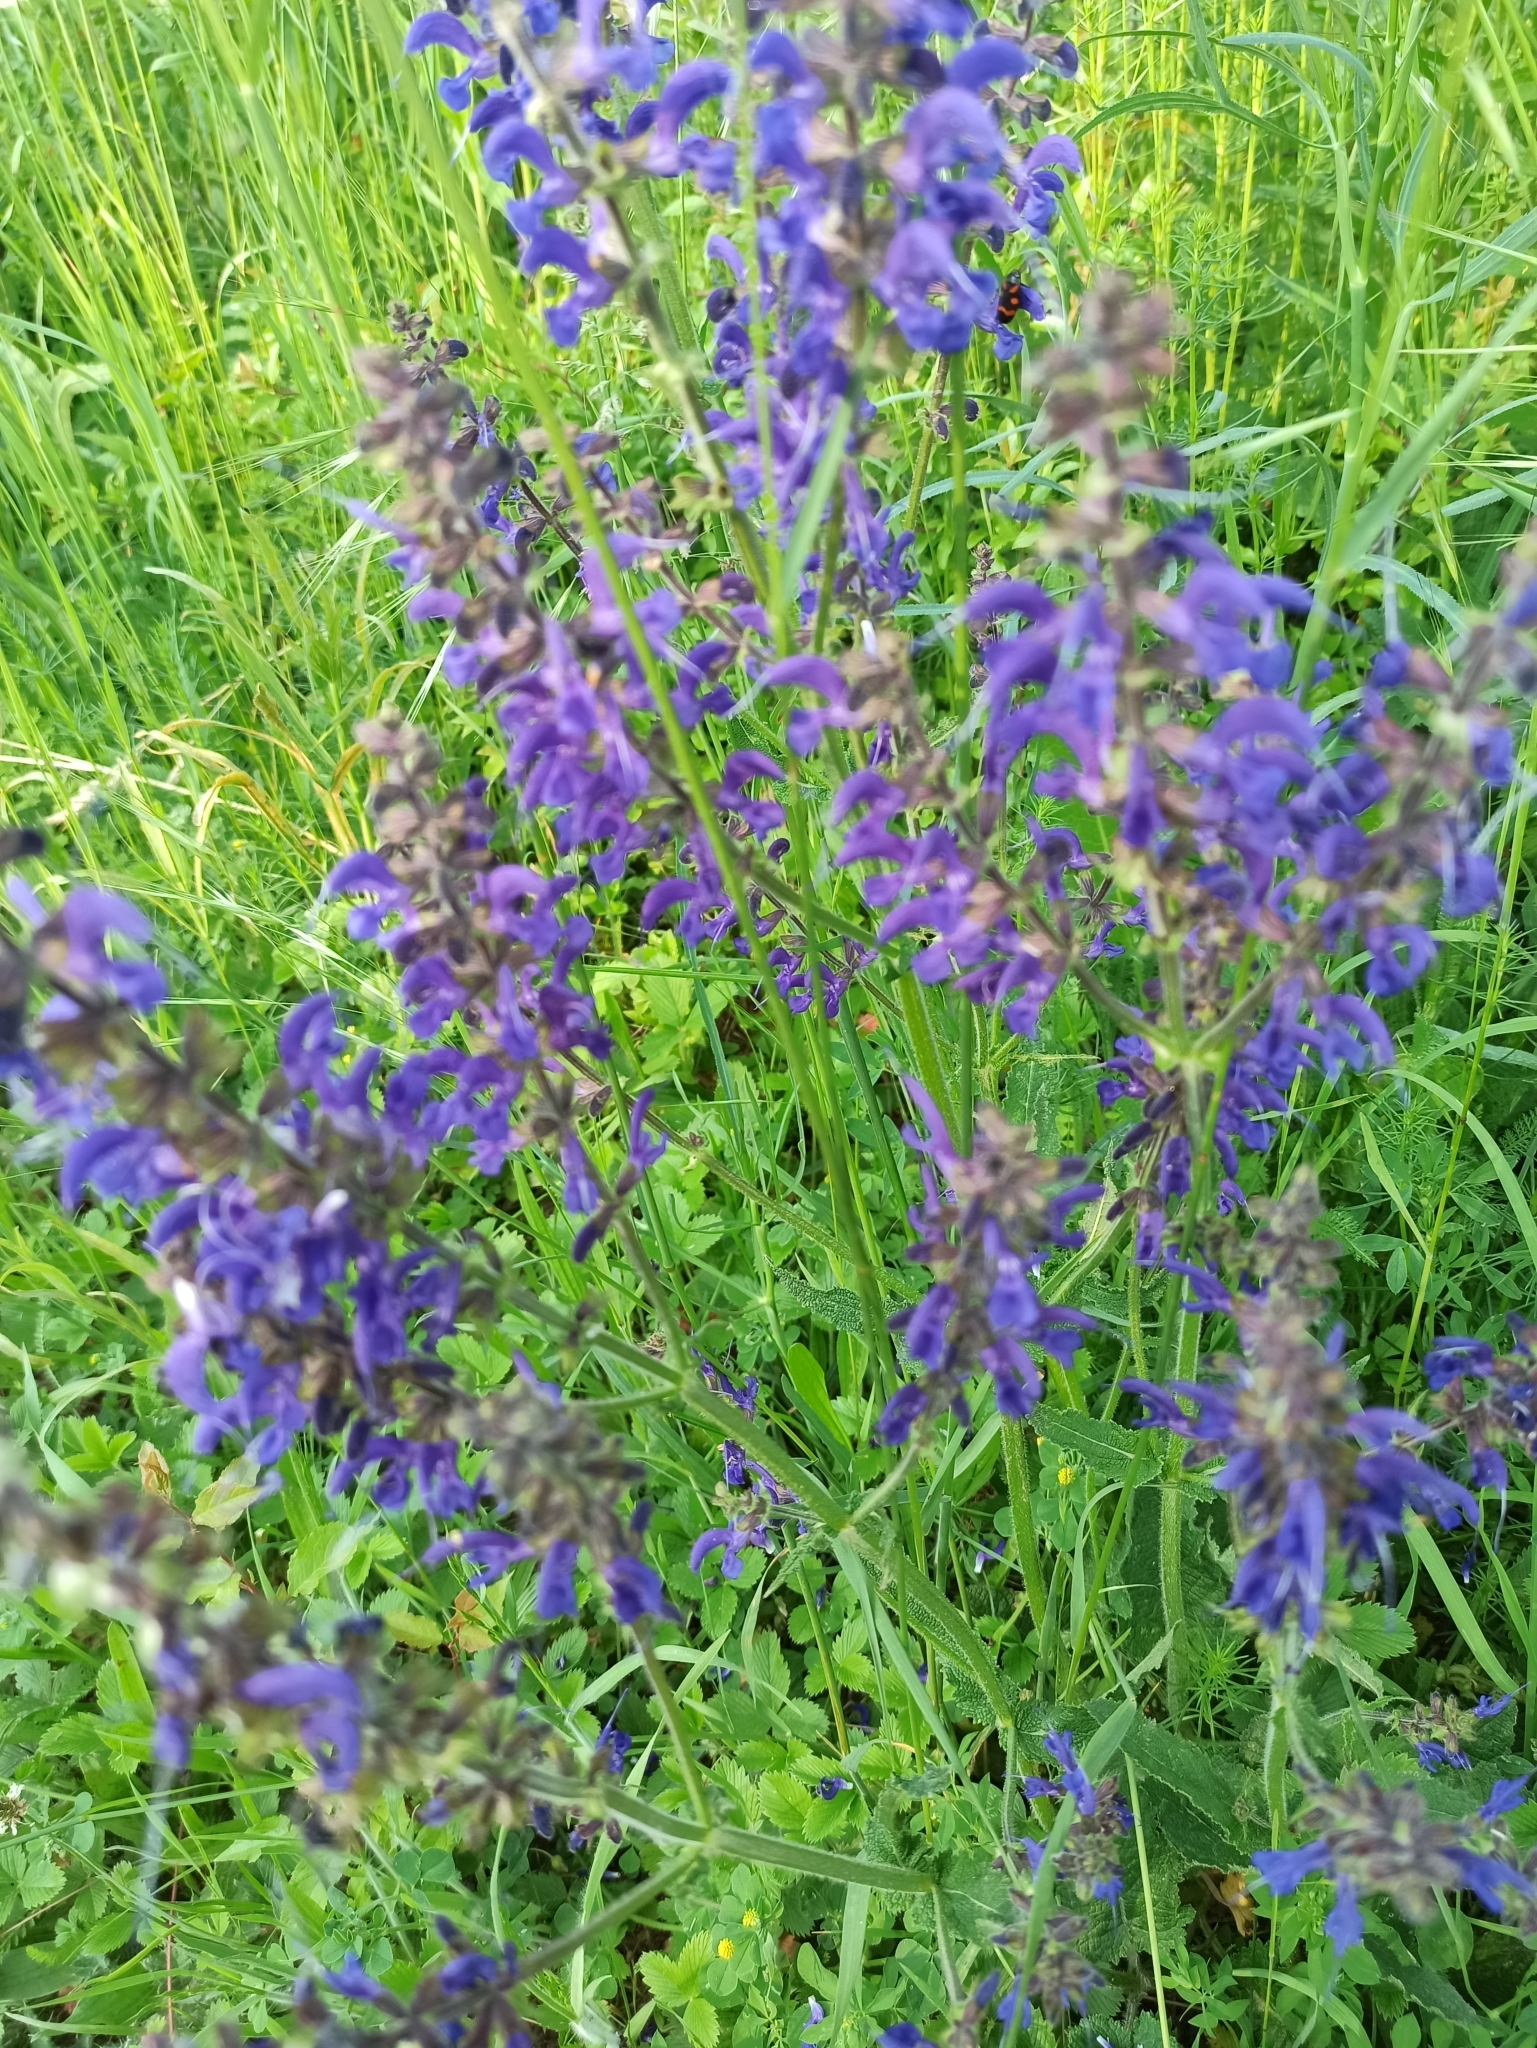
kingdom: Plantae
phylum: Tracheophyta
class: Magnoliopsida
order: Lamiales
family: Lamiaceae
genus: Salvia
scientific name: Salvia pratensis
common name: Meadow sage
